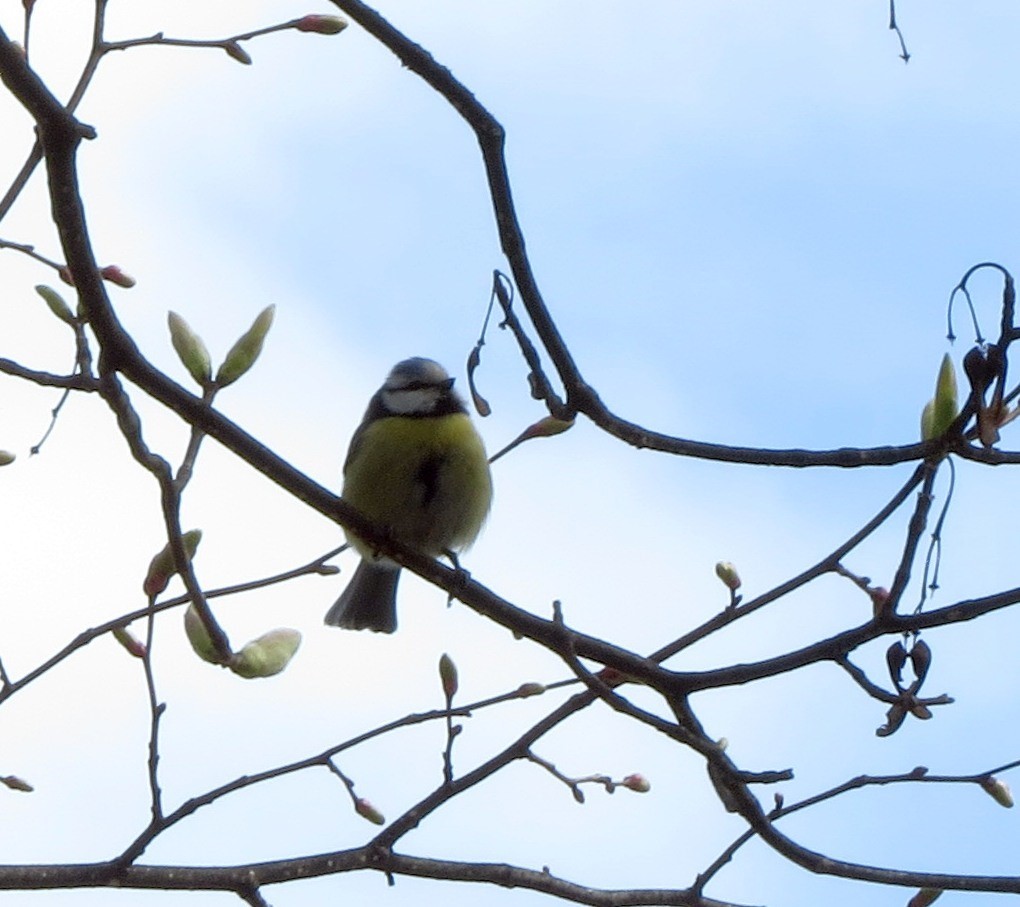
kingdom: Animalia
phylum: Chordata
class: Aves
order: Passeriformes
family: Paridae
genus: Cyanistes
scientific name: Cyanistes caeruleus
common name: Eurasian blue tit
